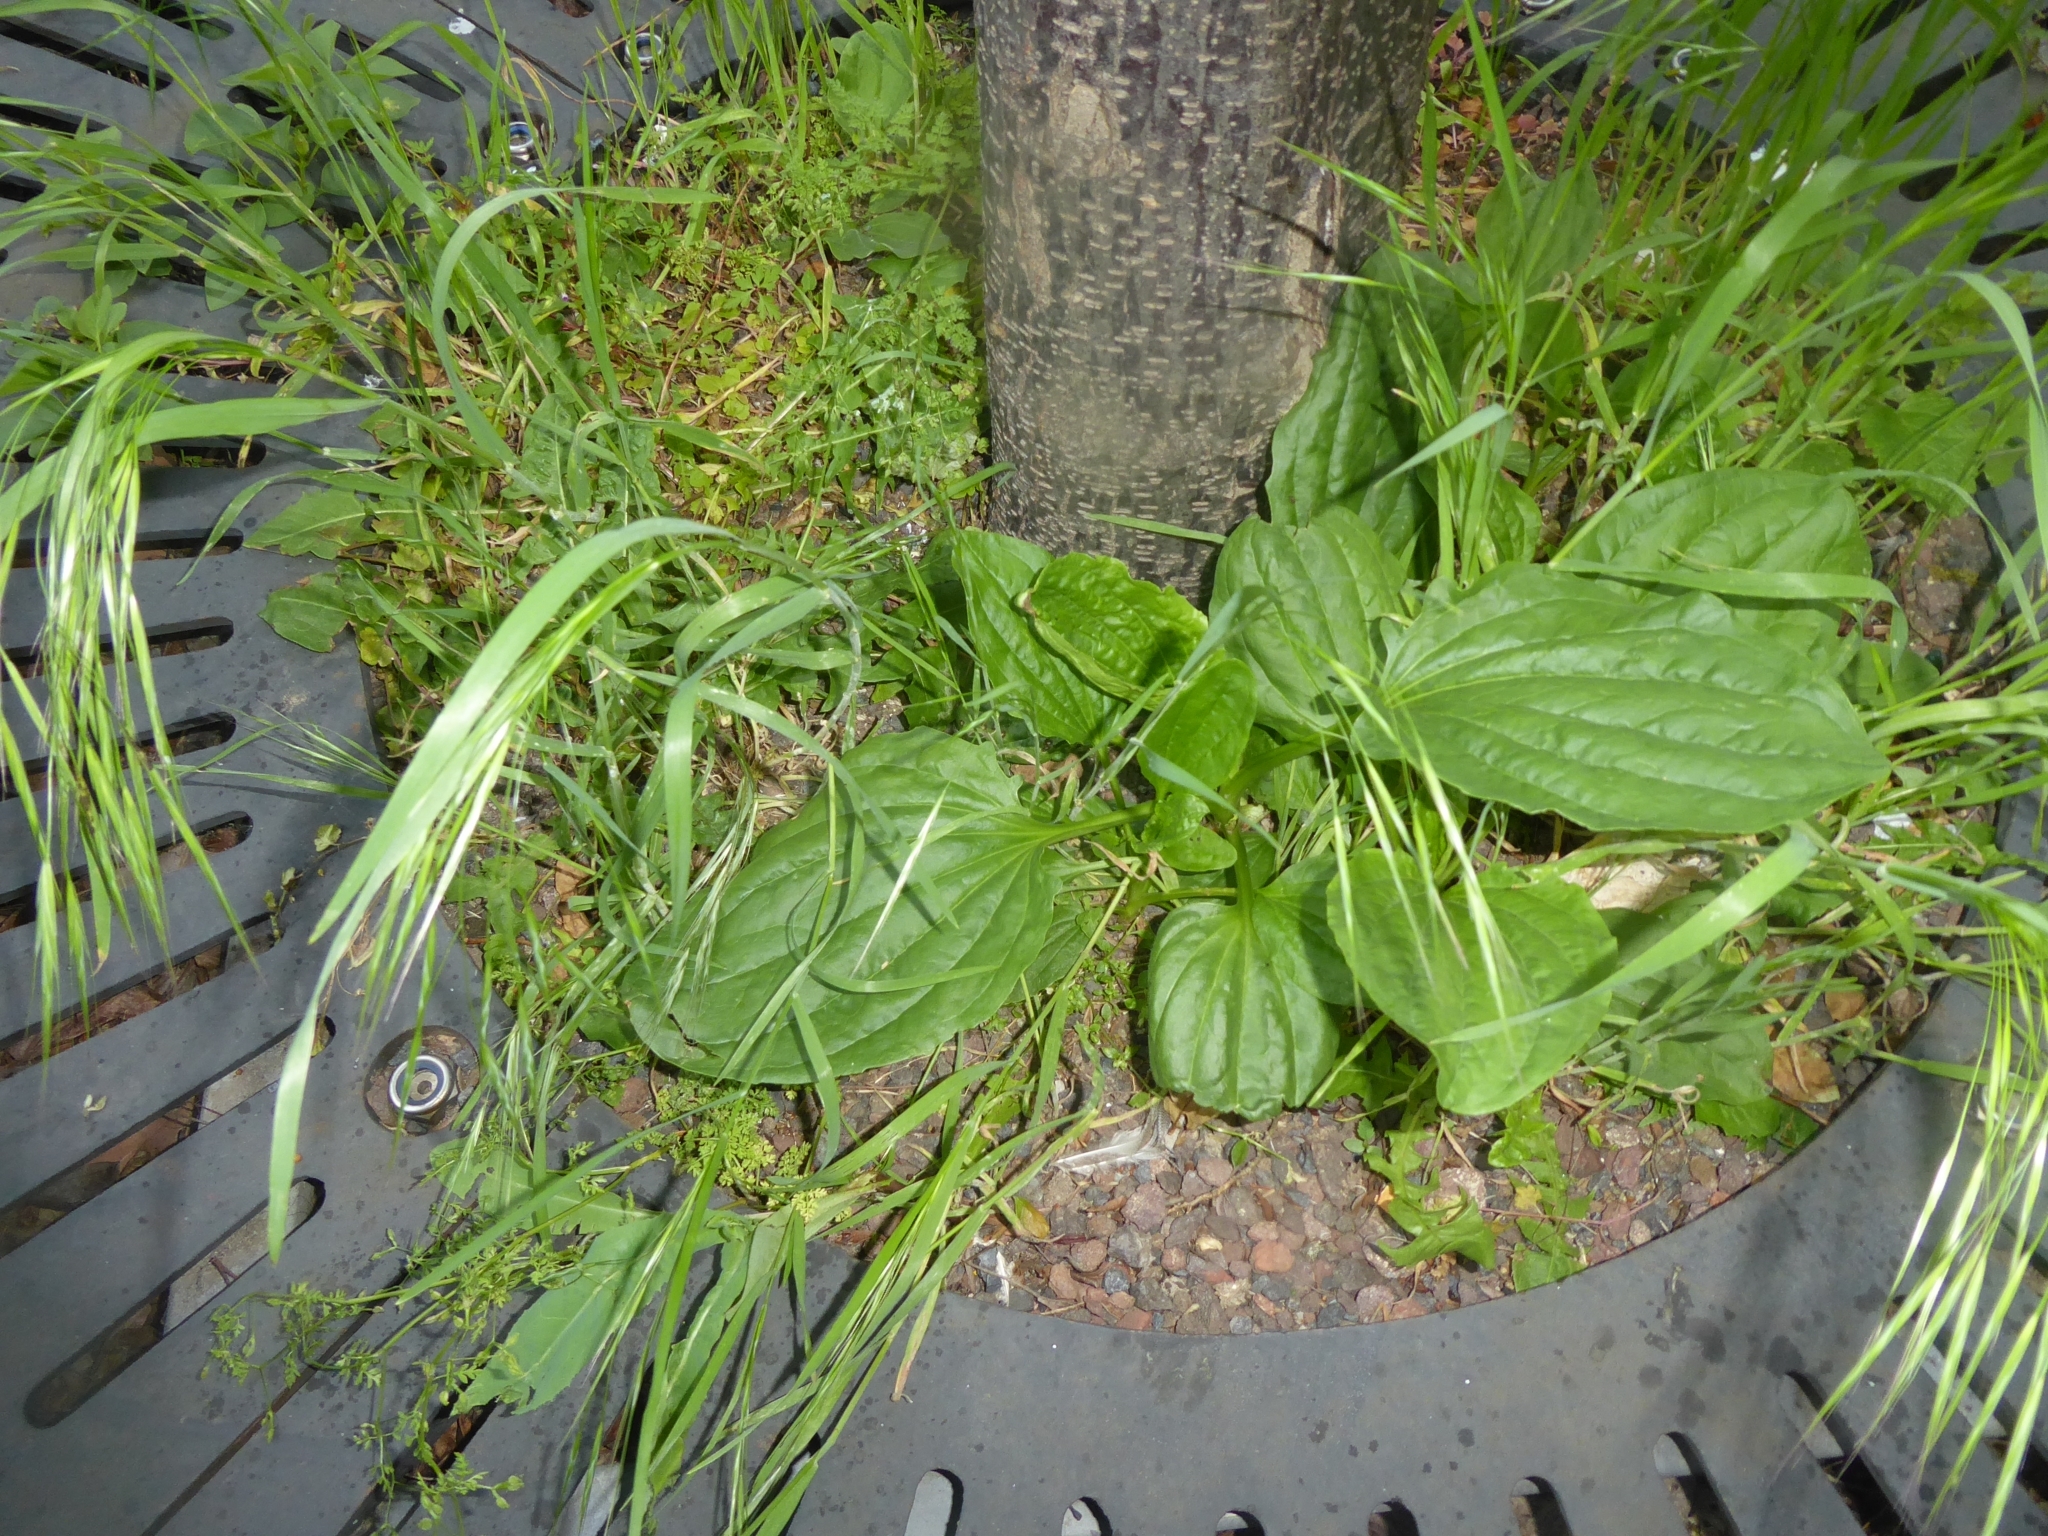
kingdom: Plantae
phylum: Tracheophyta
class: Magnoliopsida
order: Lamiales
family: Plantaginaceae
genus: Plantago
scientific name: Plantago major
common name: Common plantain
